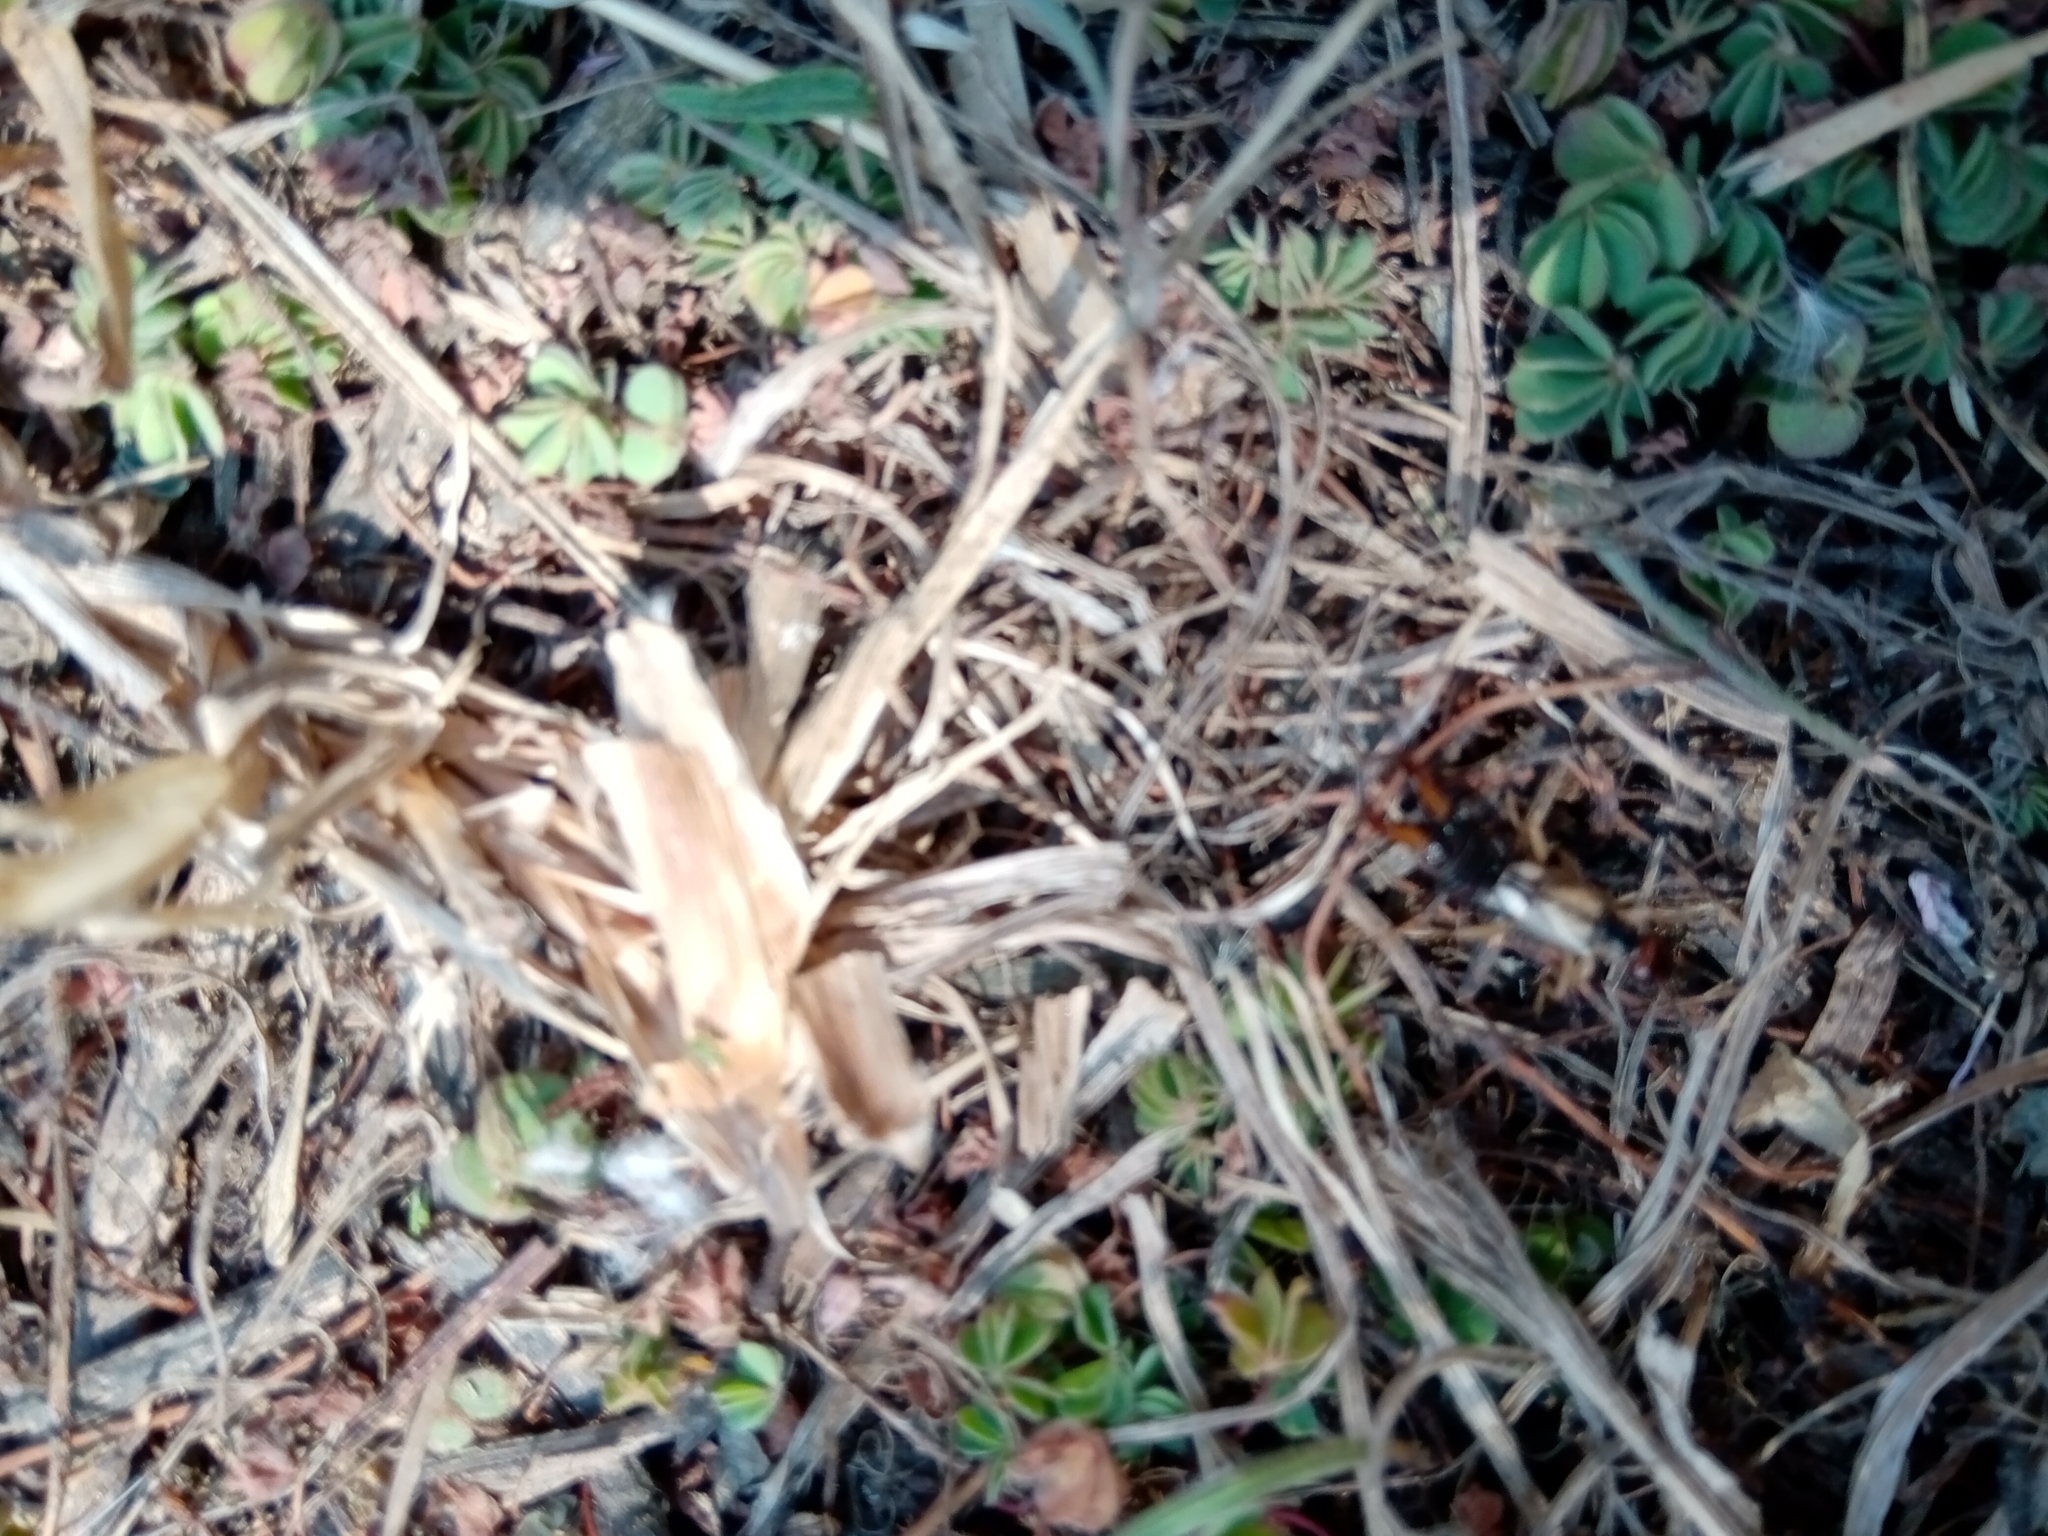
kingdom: Animalia
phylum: Arthropoda
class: Insecta
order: Dermaptera
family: Forficulidae
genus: Forficula
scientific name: Forficula
